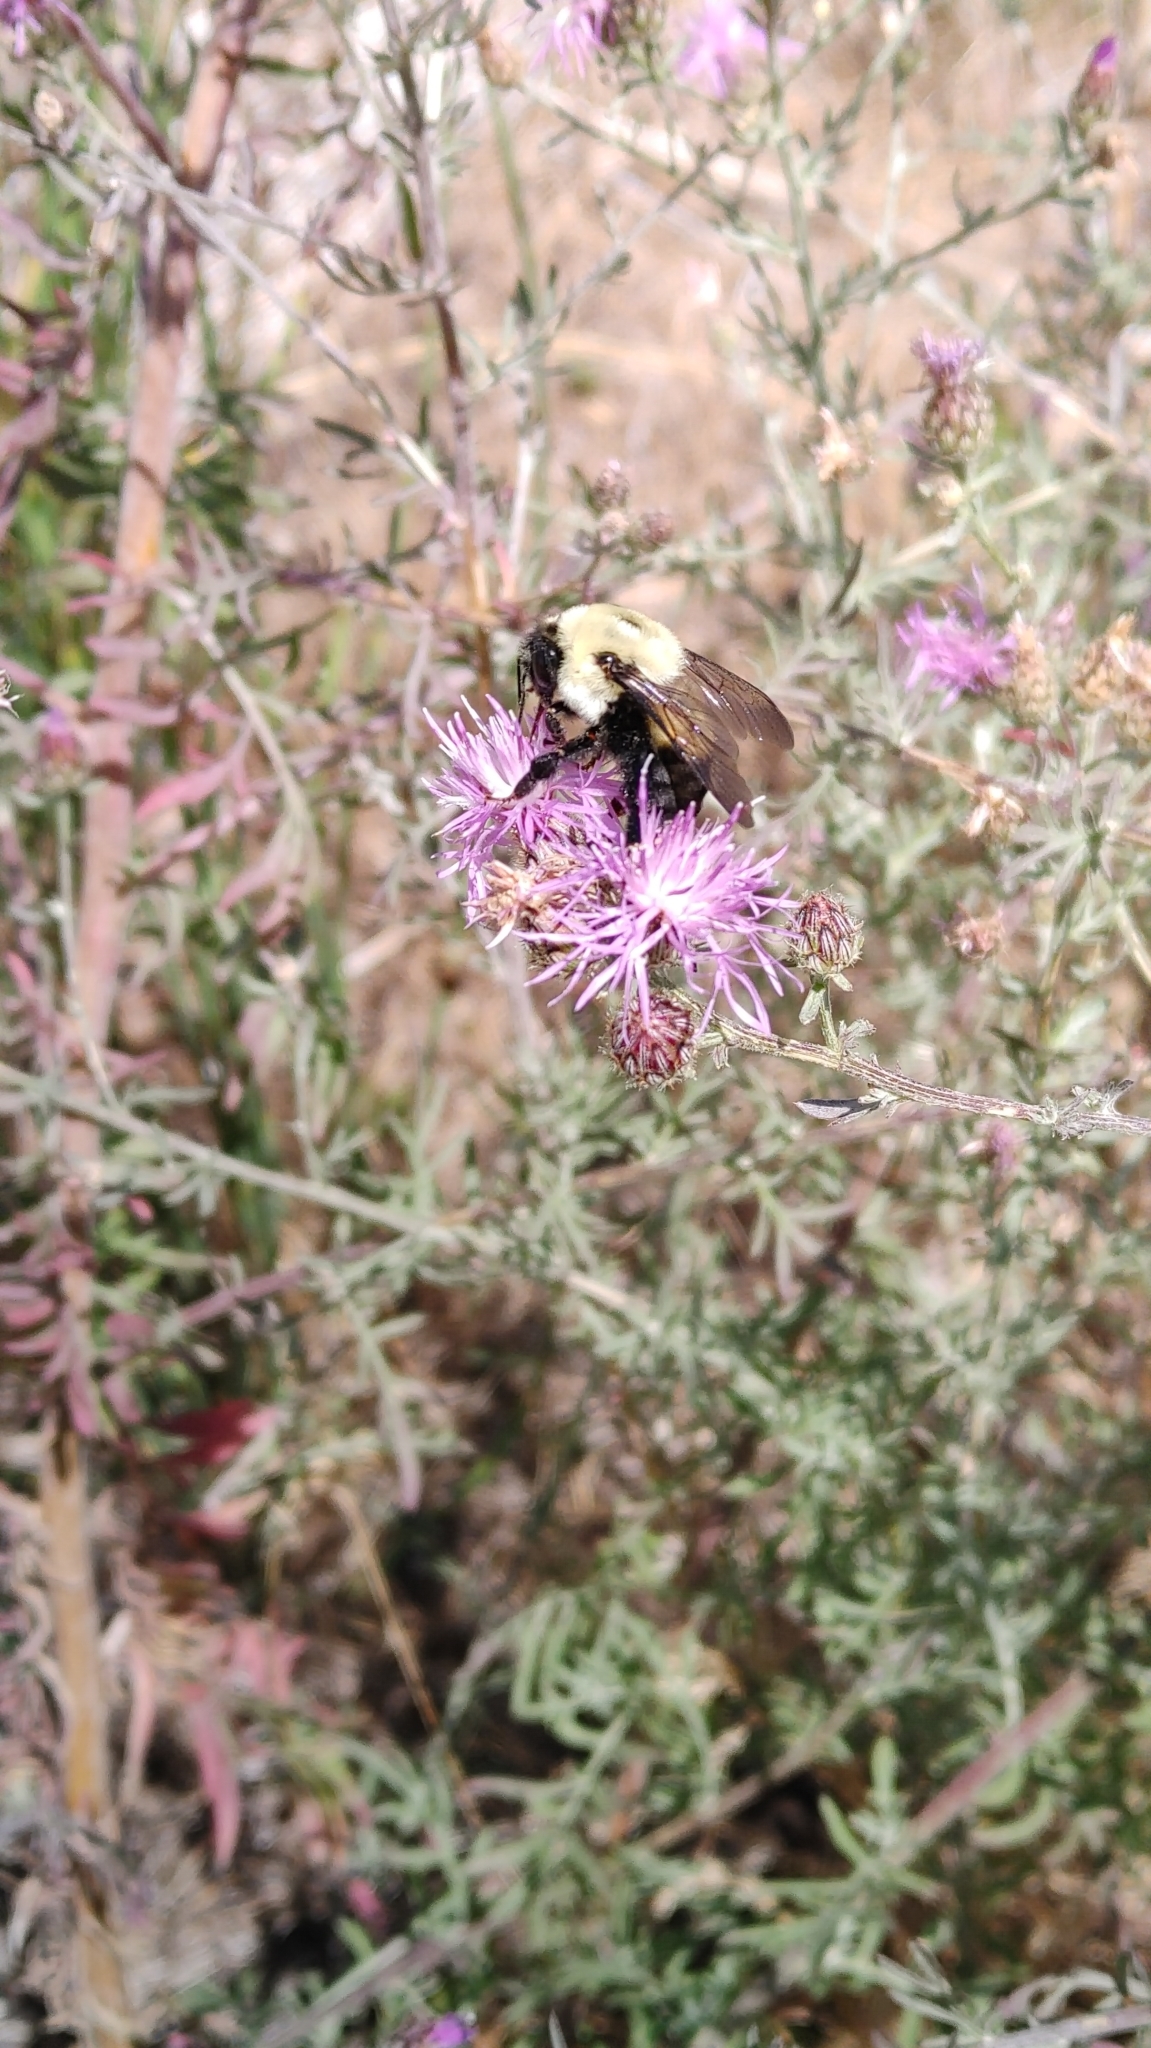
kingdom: Animalia
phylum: Arthropoda
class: Insecta
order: Hymenoptera
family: Apidae
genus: Bombus
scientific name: Bombus griseocollis
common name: Brown-belted bumble bee
